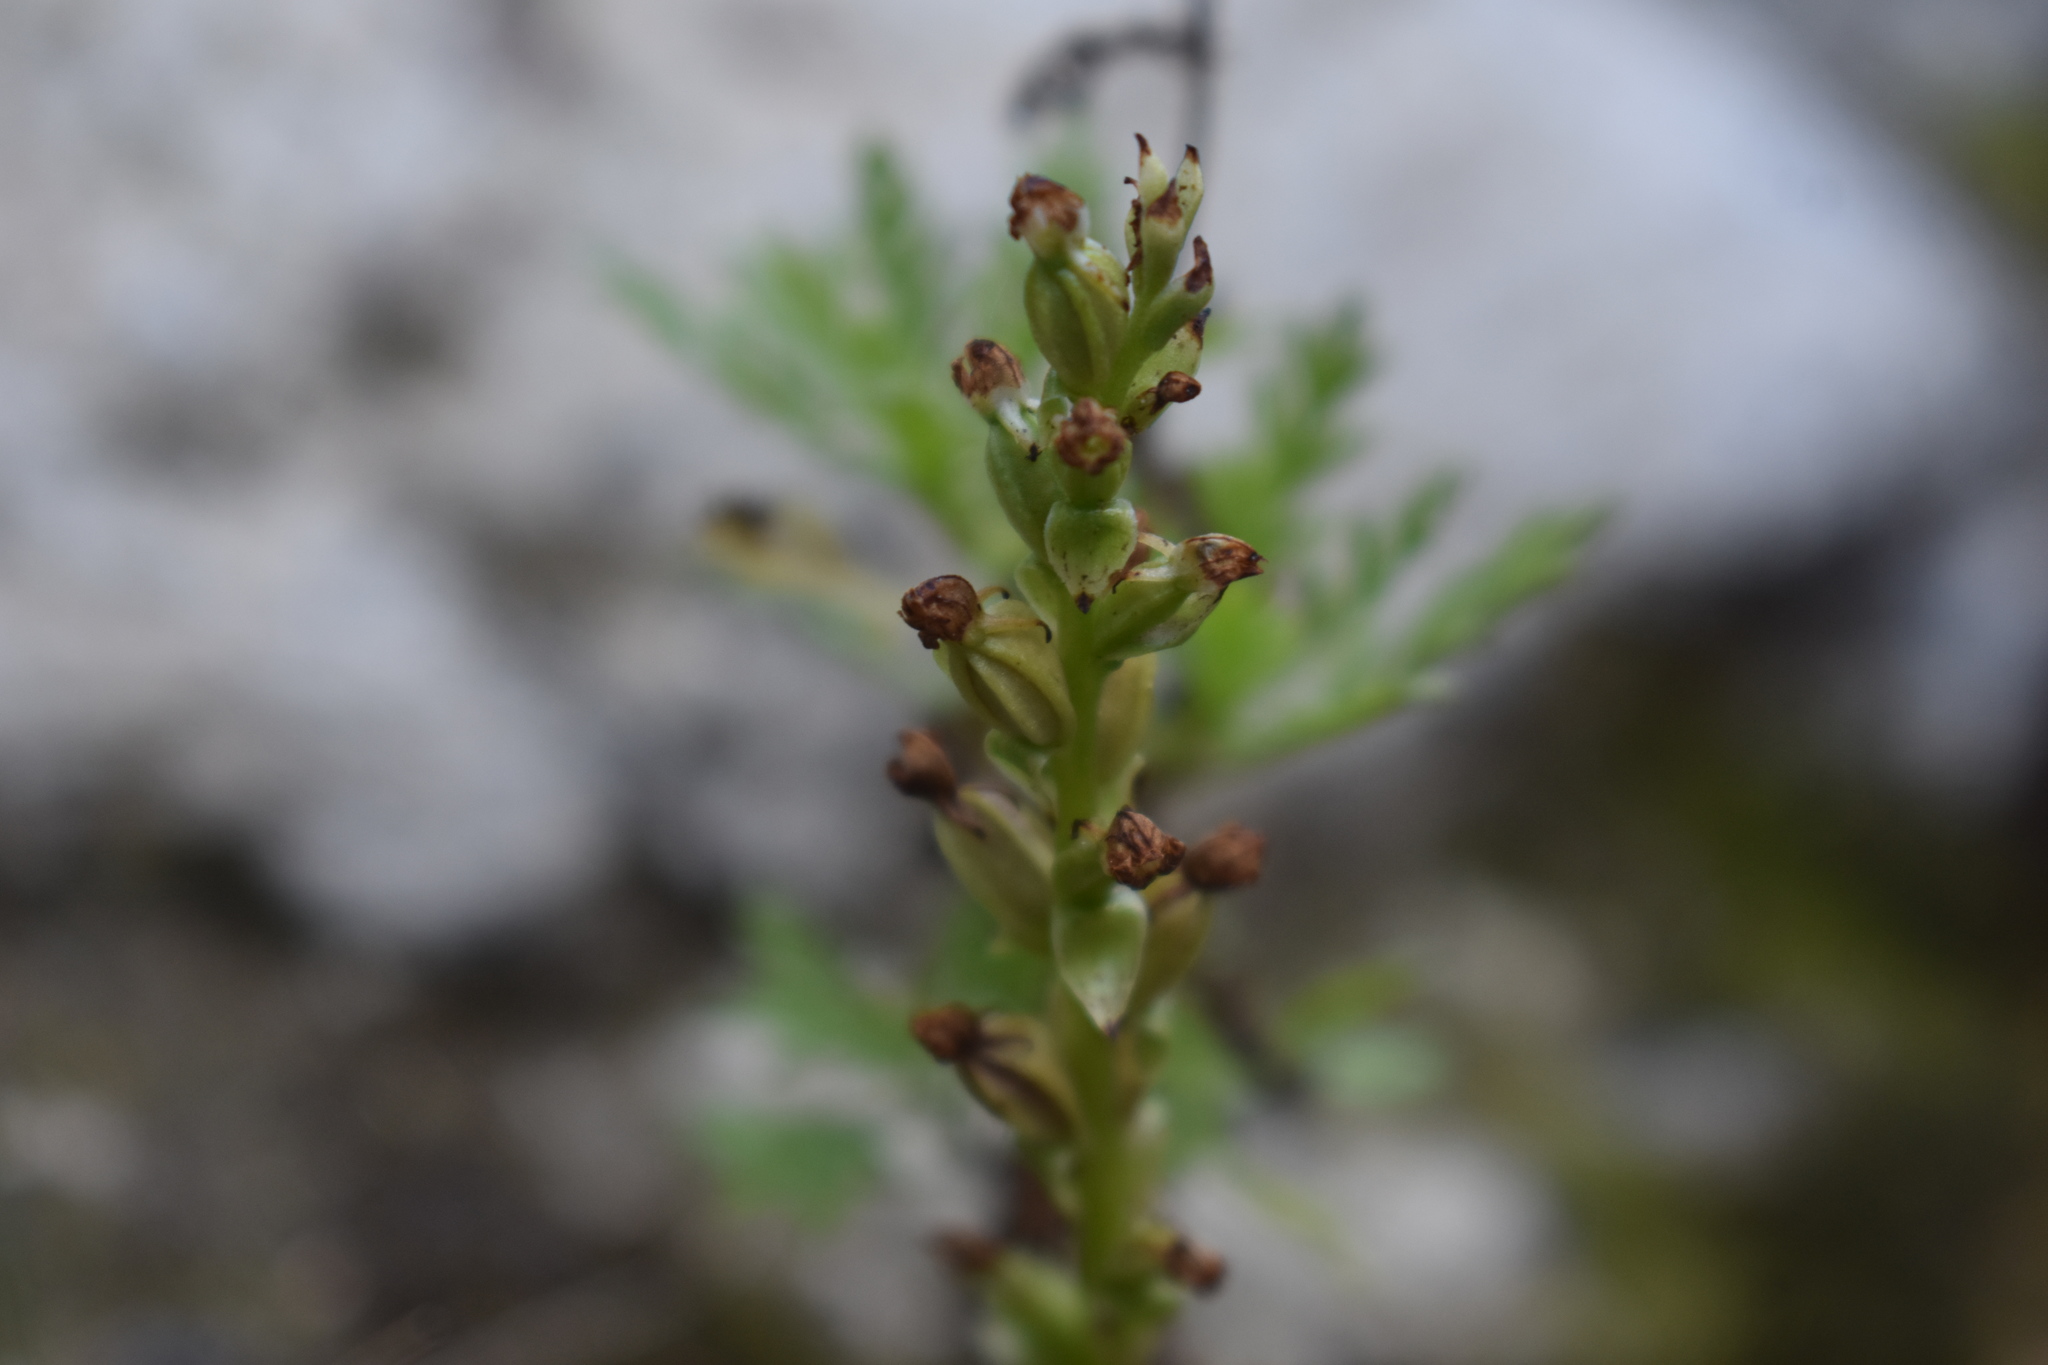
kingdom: Plantae
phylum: Tracheophyta
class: Liliopsida
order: Asparagales
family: Orchidaceae
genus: Satyrium
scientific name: Satyrium rupestre
